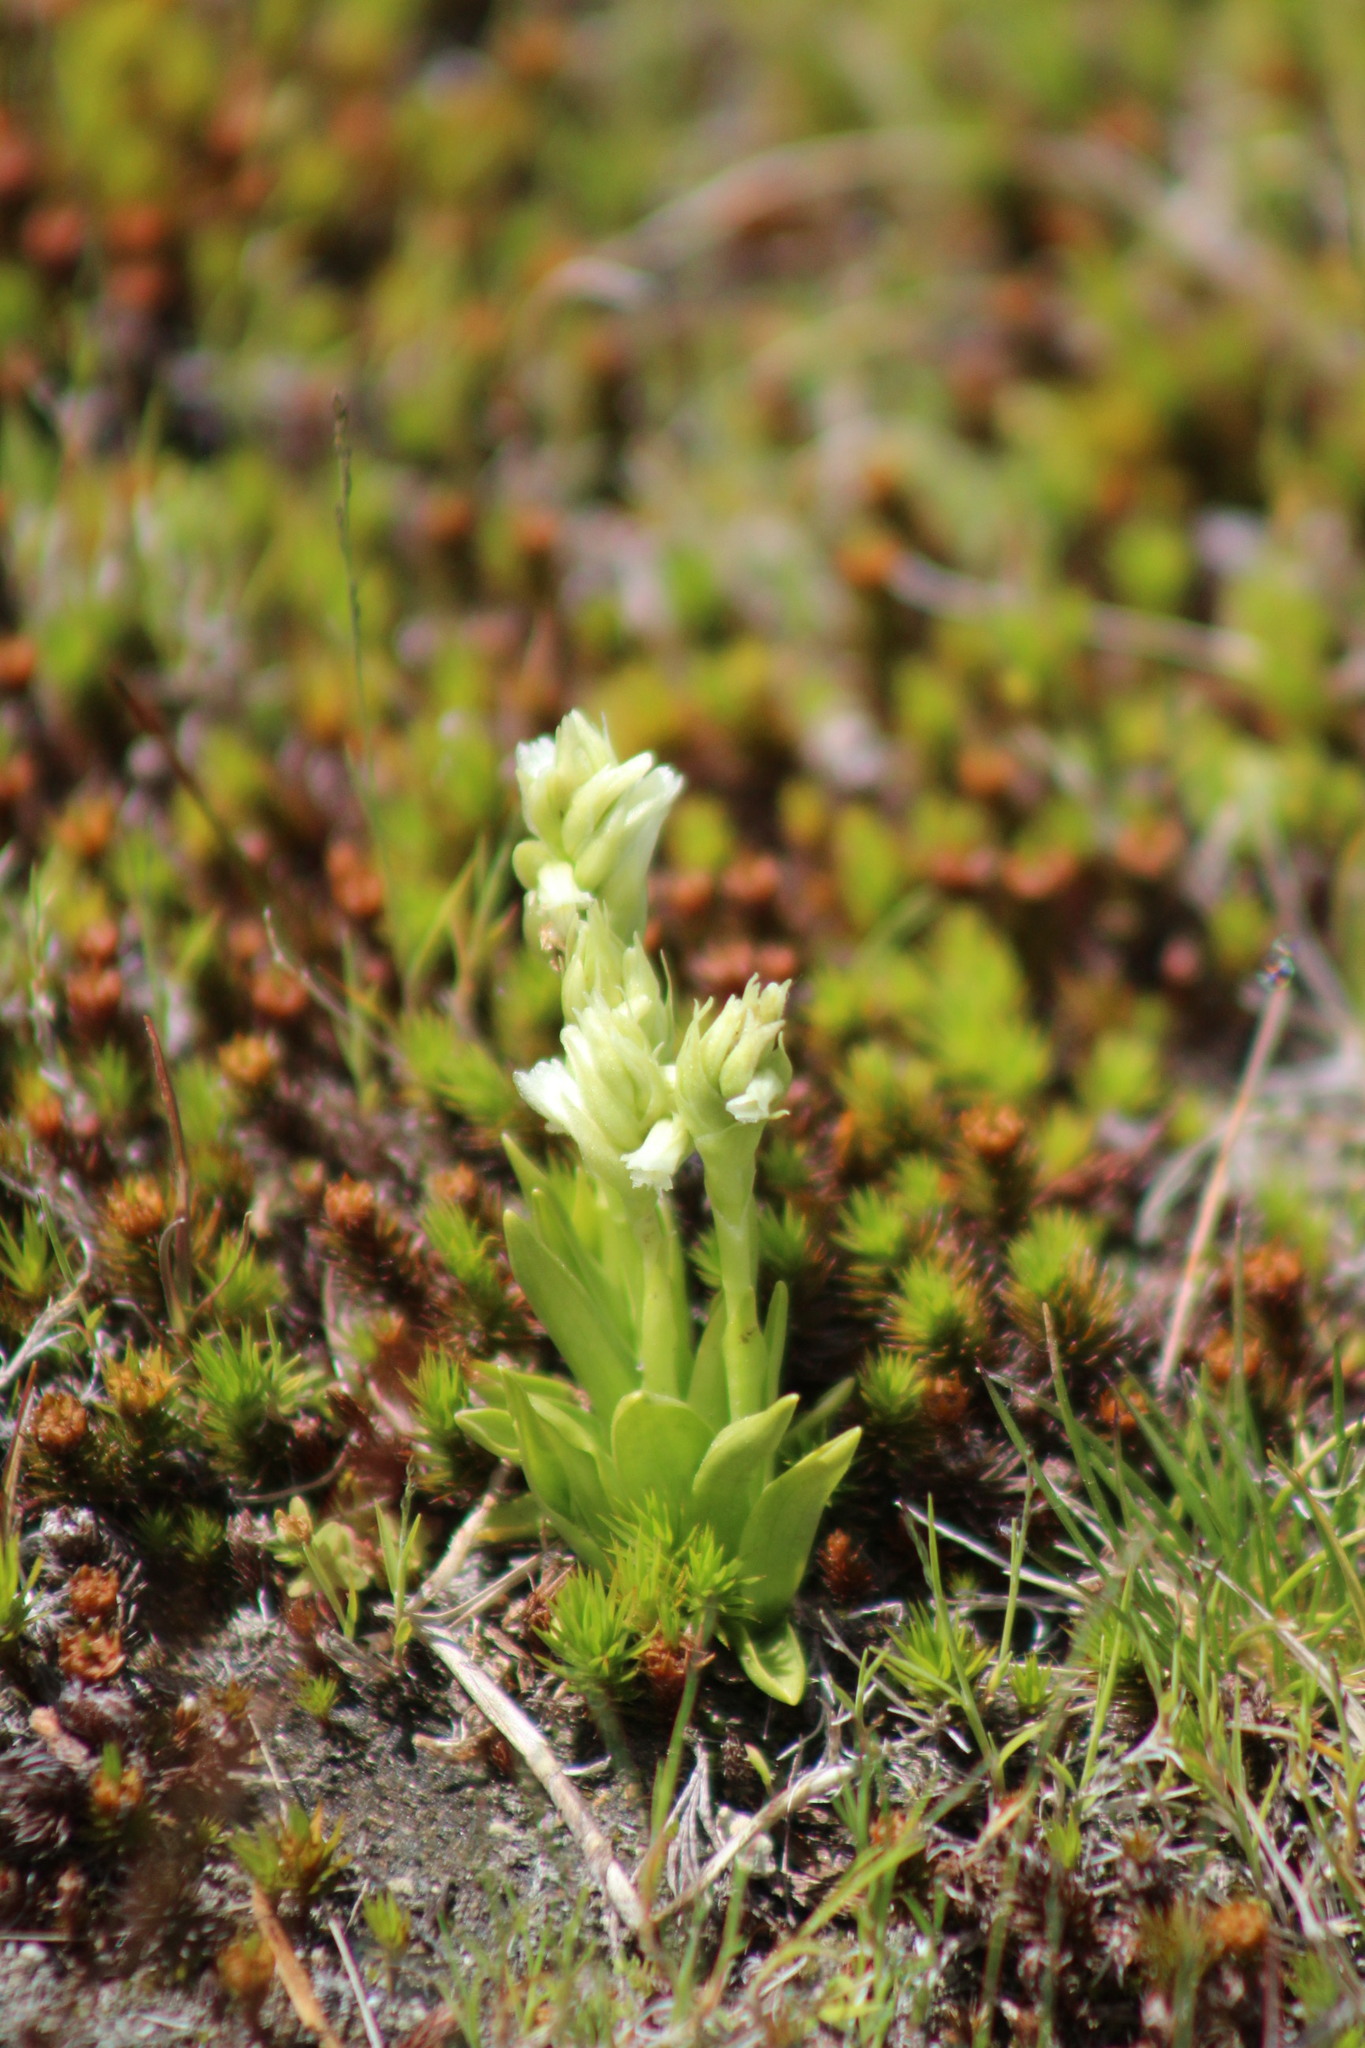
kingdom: Plantae
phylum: Tracheophyta
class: Liliopsida
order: Asparagales
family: Orchidaceae
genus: Spiranthes
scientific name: Spiranthes romanzoffiana
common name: Irish lady's-tresses
